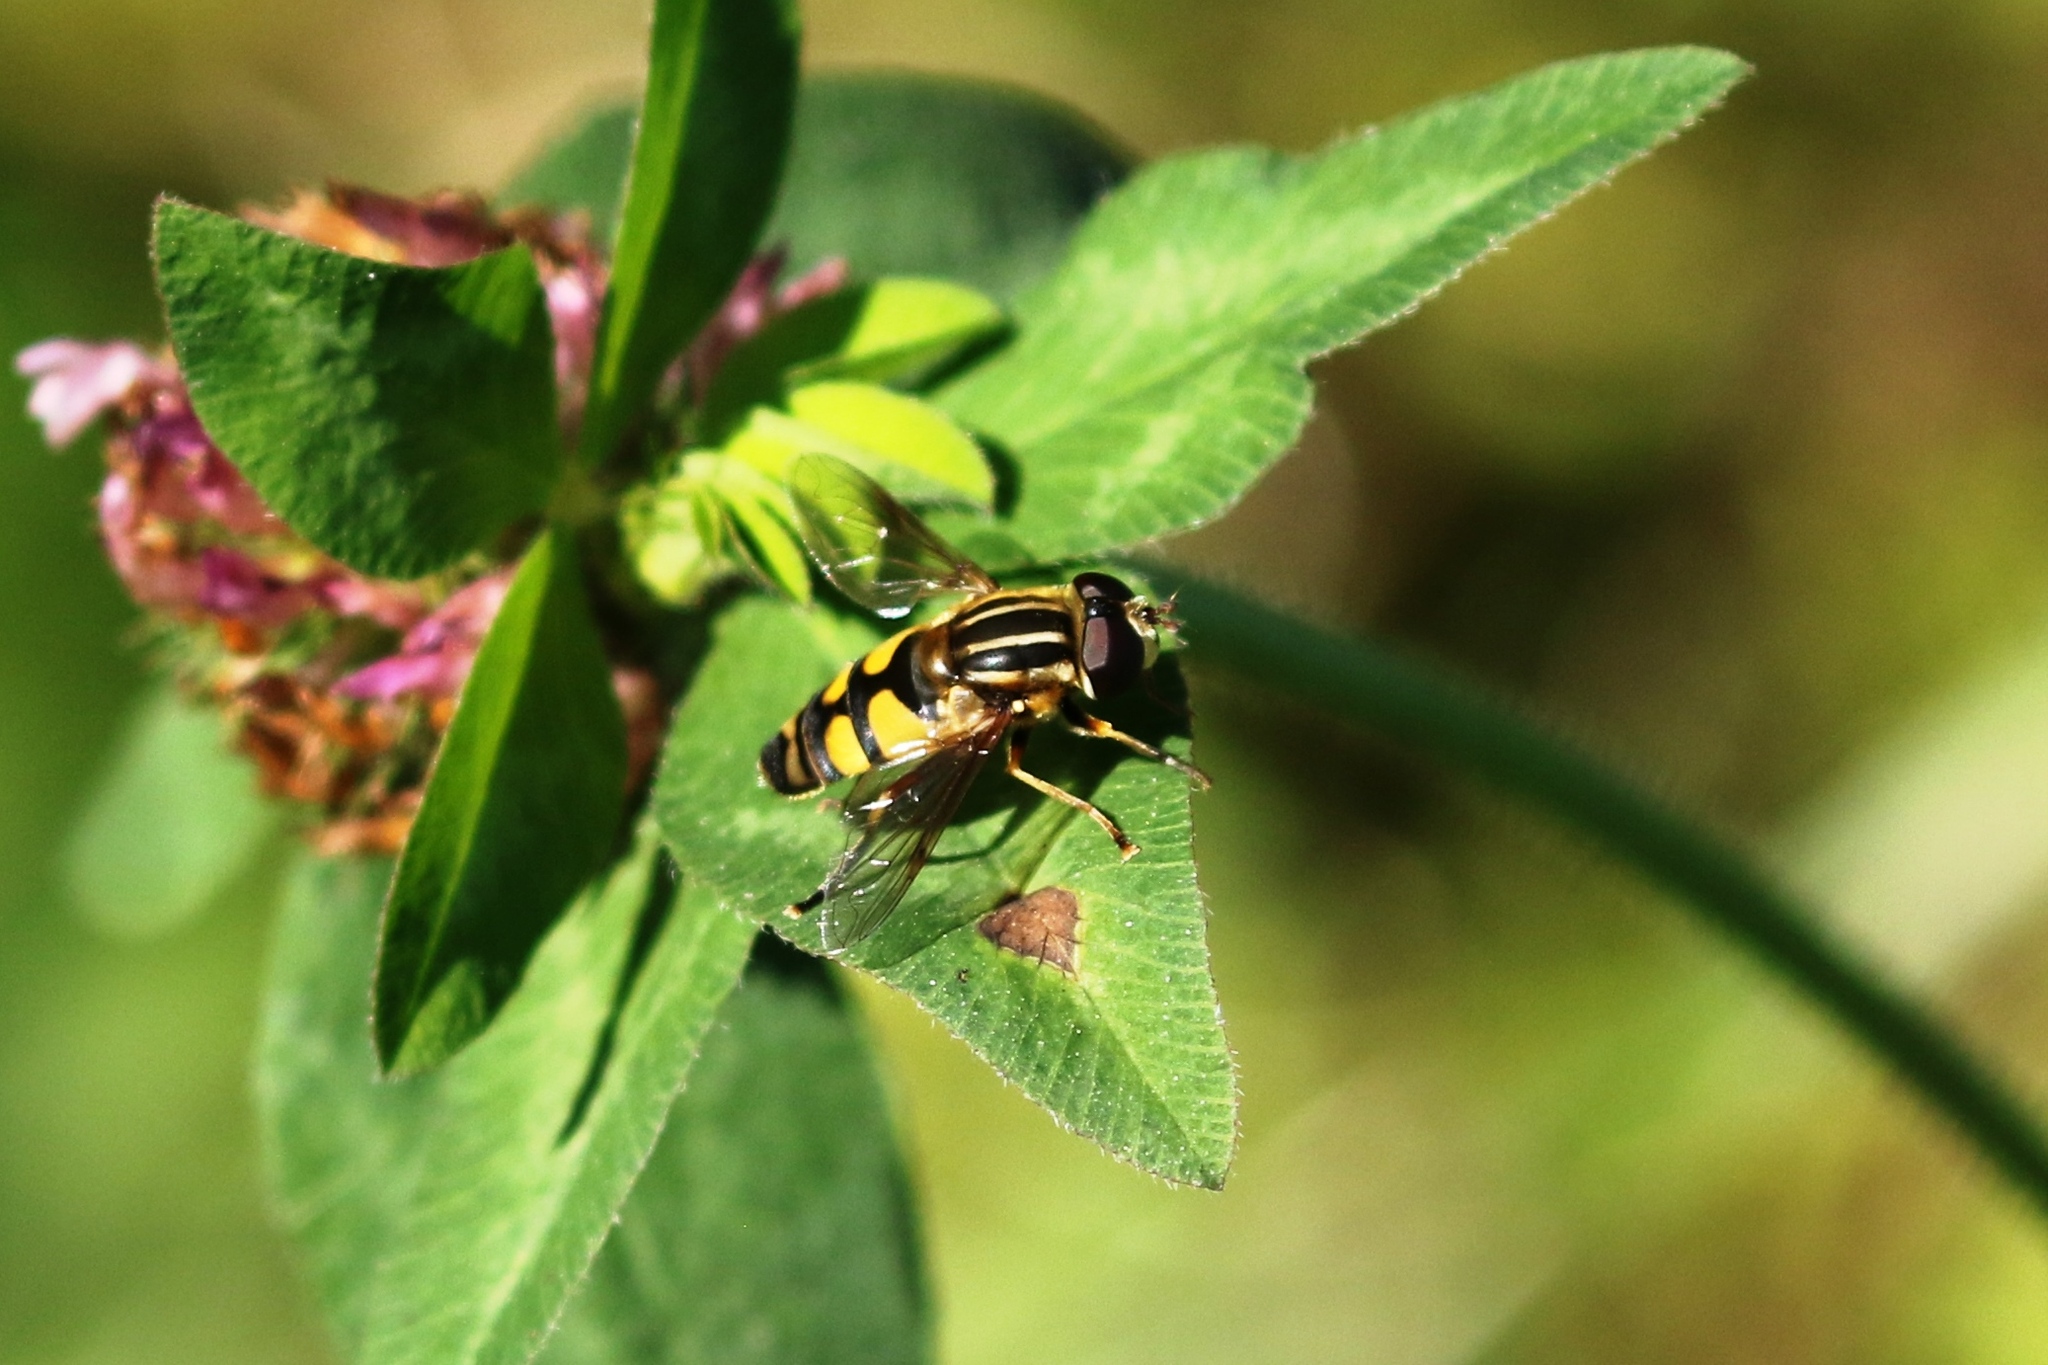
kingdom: Animalia
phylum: Arthropoda
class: Insecta
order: Diptera
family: Syrphidae
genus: Helophilus
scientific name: Helophilus fasciatus
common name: Narrow-headed marsh fly
